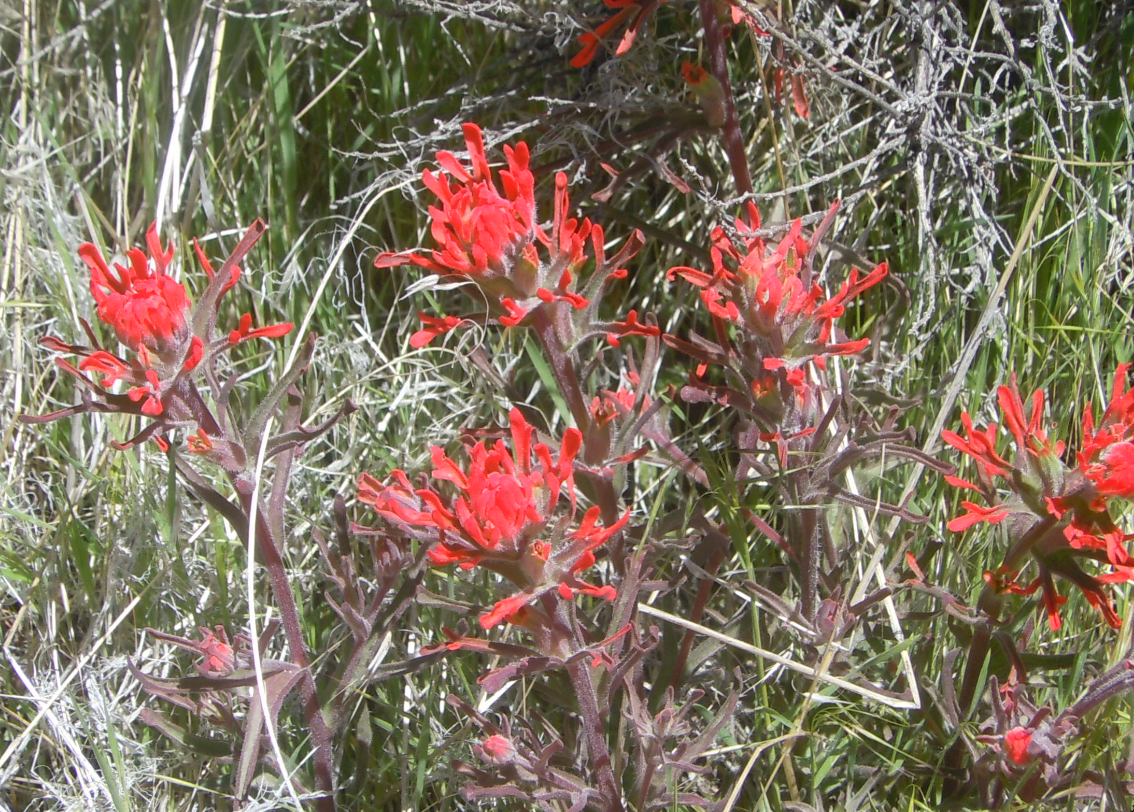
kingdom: Plantae
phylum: Tracheophyta
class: Magnoliopsida
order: Lamiales
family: Orobanchaceae
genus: Castilleja
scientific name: Castilleja chromosa
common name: Desert paintbrush
